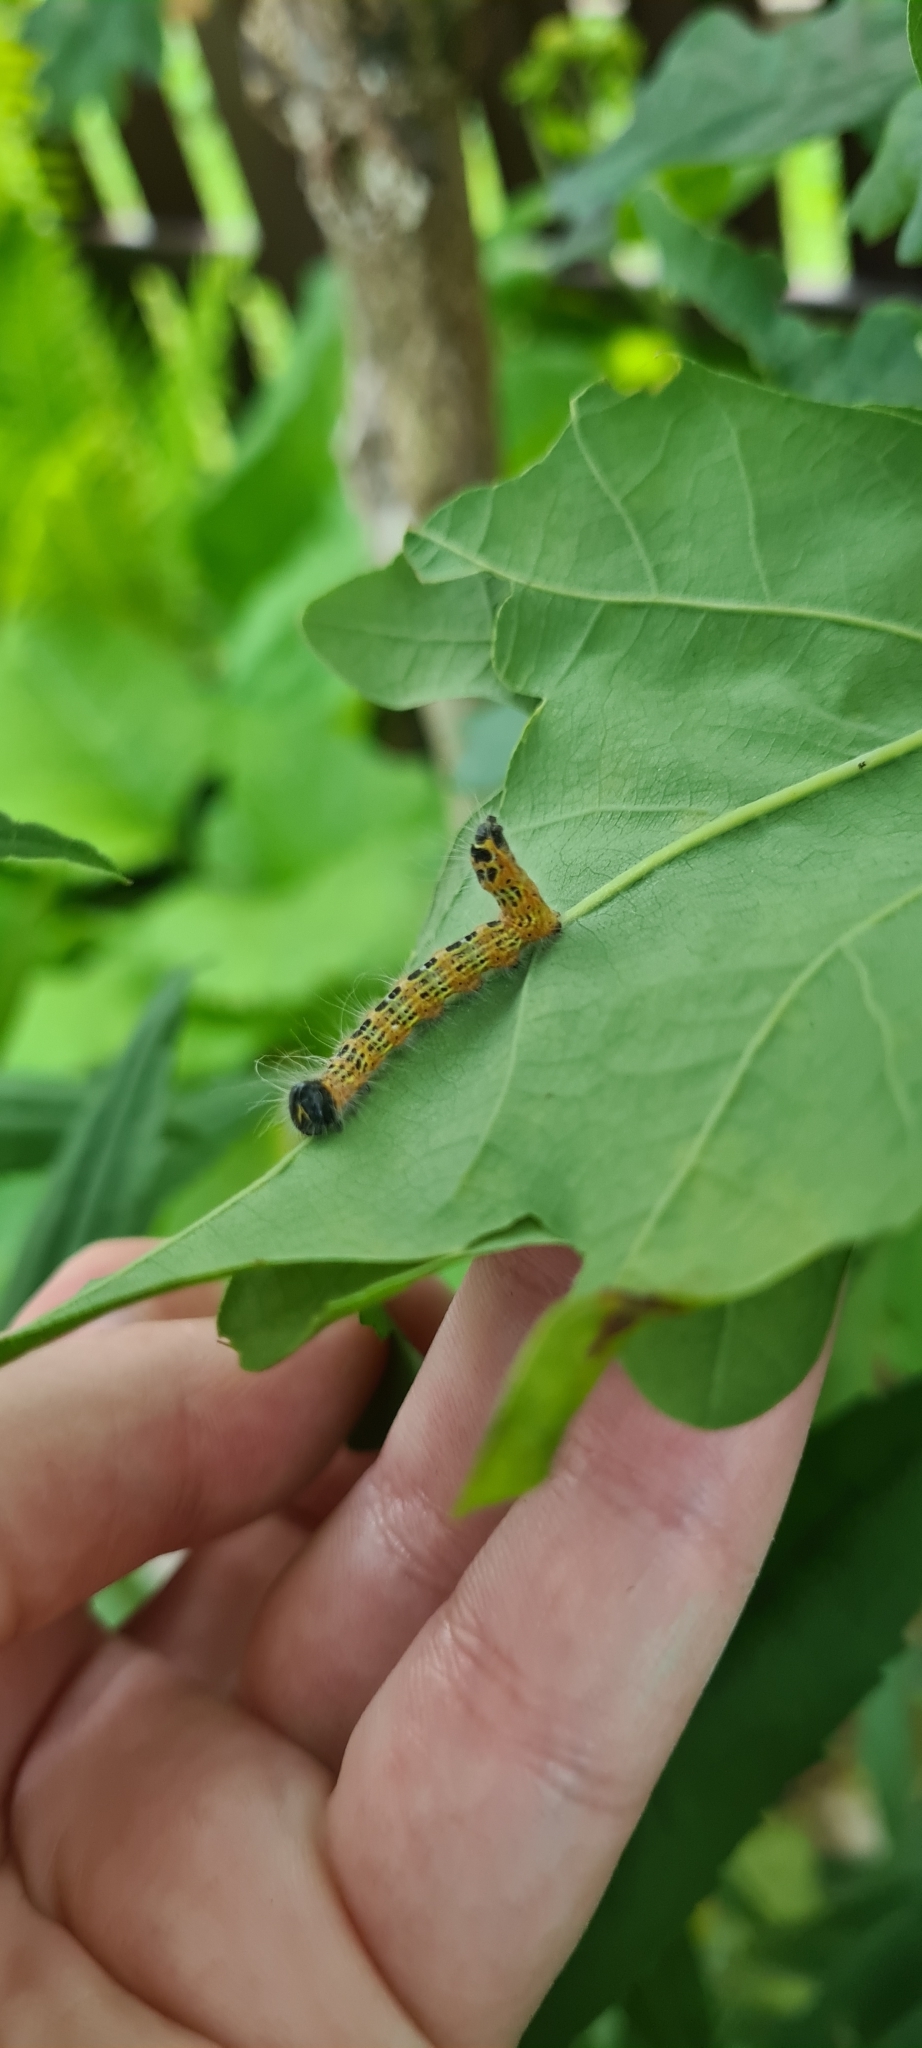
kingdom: Animalia
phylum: Arthropoda
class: Insecta
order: Lepidoptera
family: Notodontidae
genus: Phalera
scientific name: Phalera bucephala
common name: Buff-tip
